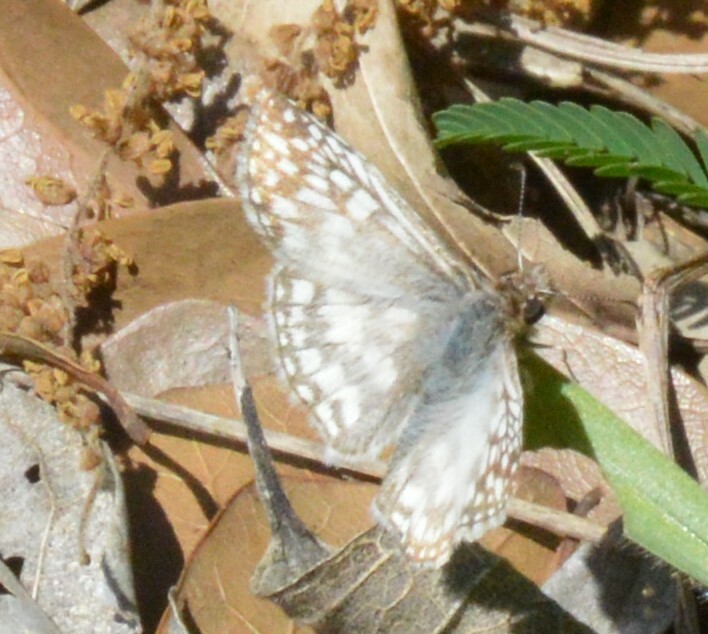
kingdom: Animalia
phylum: Arthropoda
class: Insecta
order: Lepidoptera
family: Hesperiidae
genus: Pyrgus
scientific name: Pyrgus oileus
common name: Tropical checkered-skipper
